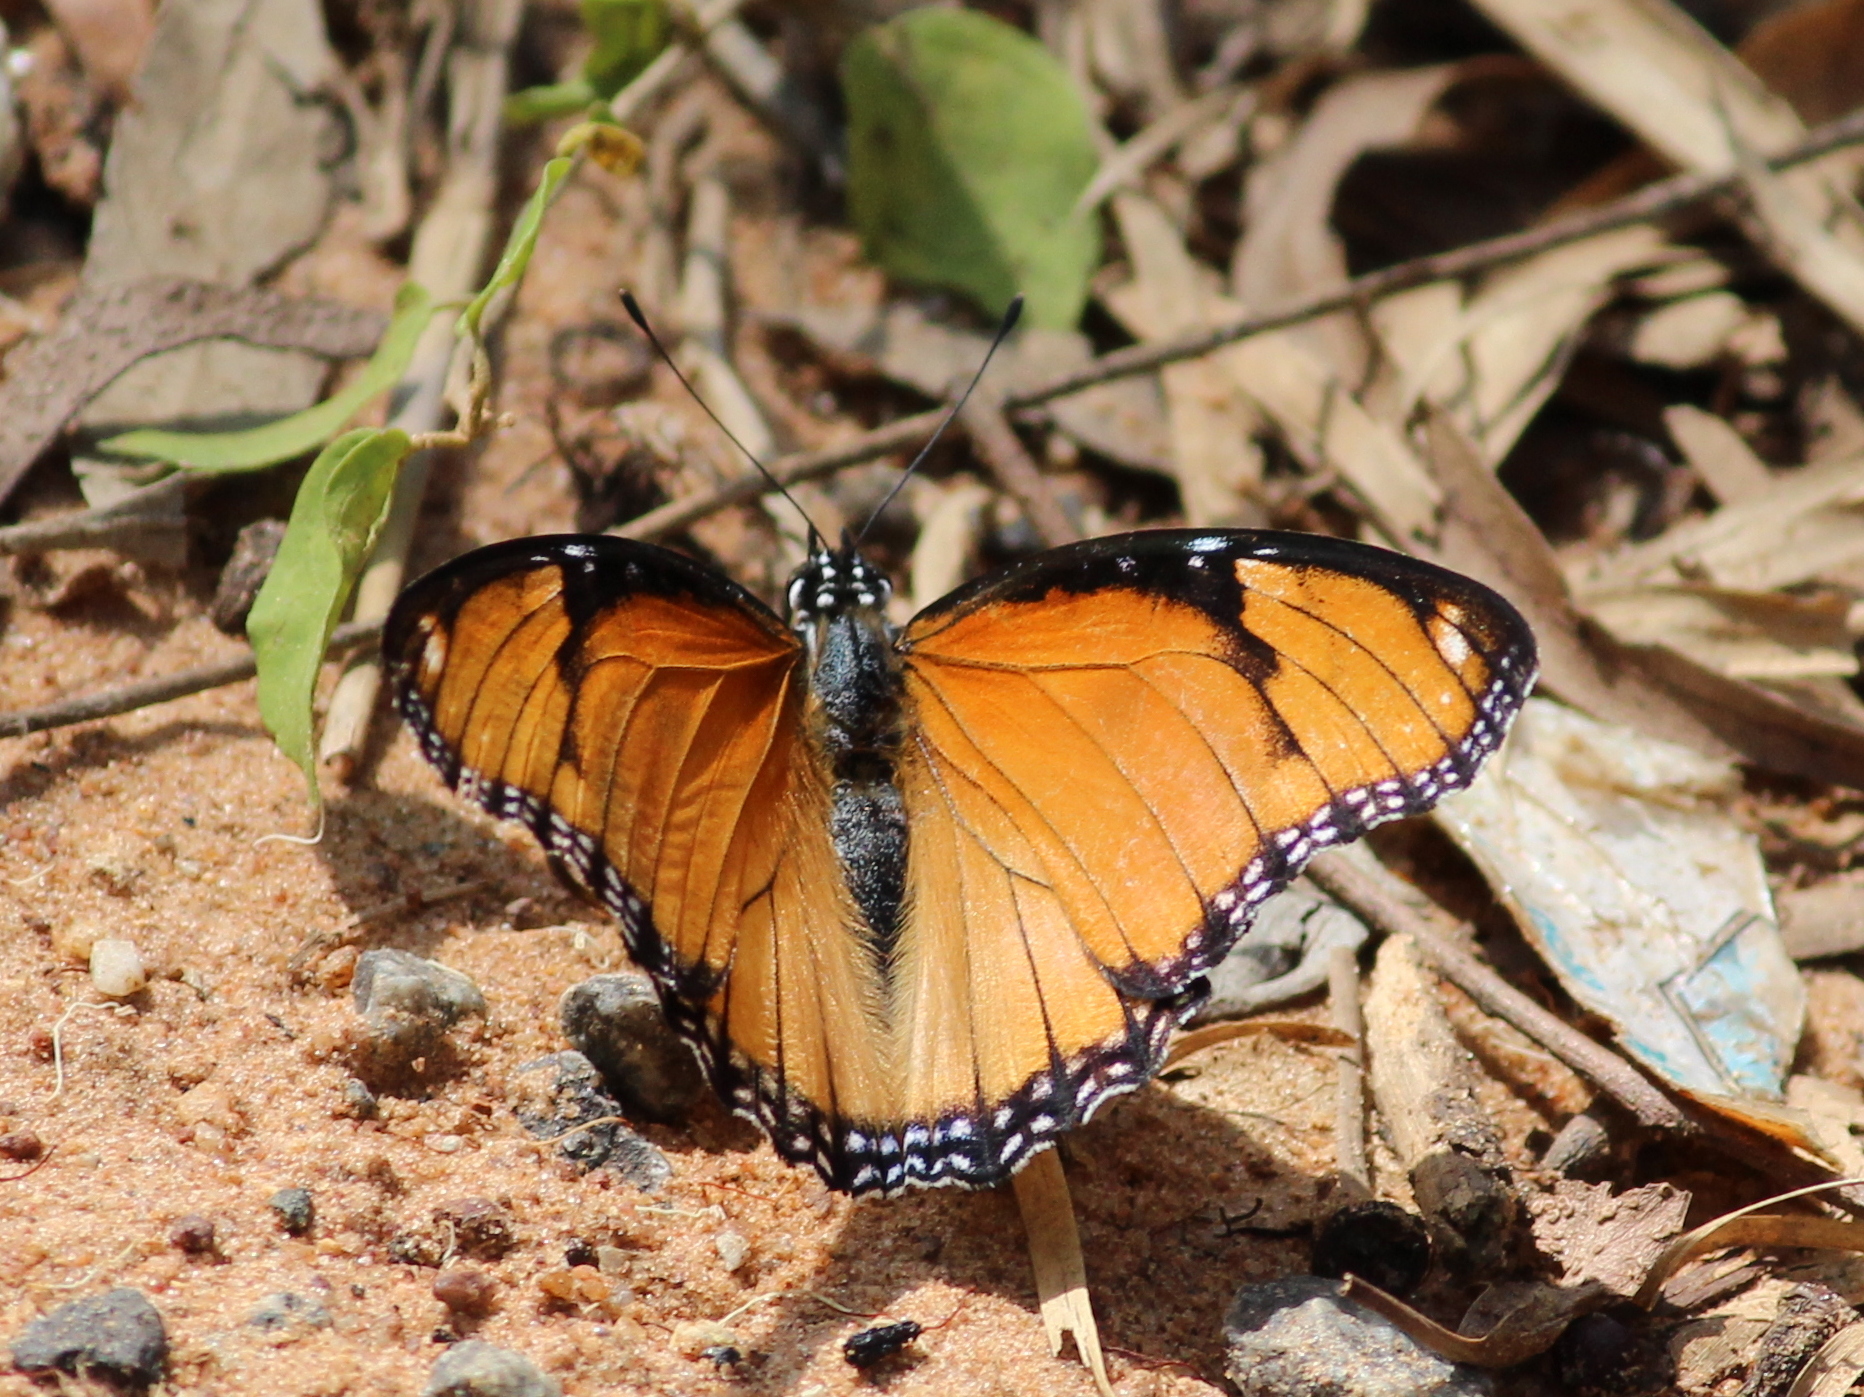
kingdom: Animalia
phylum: Arthropoda
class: Insecta
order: Lepidoptera
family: Nymphalidae
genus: Hypolimnas
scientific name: Hypolimnas misippus
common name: False plain tiger
